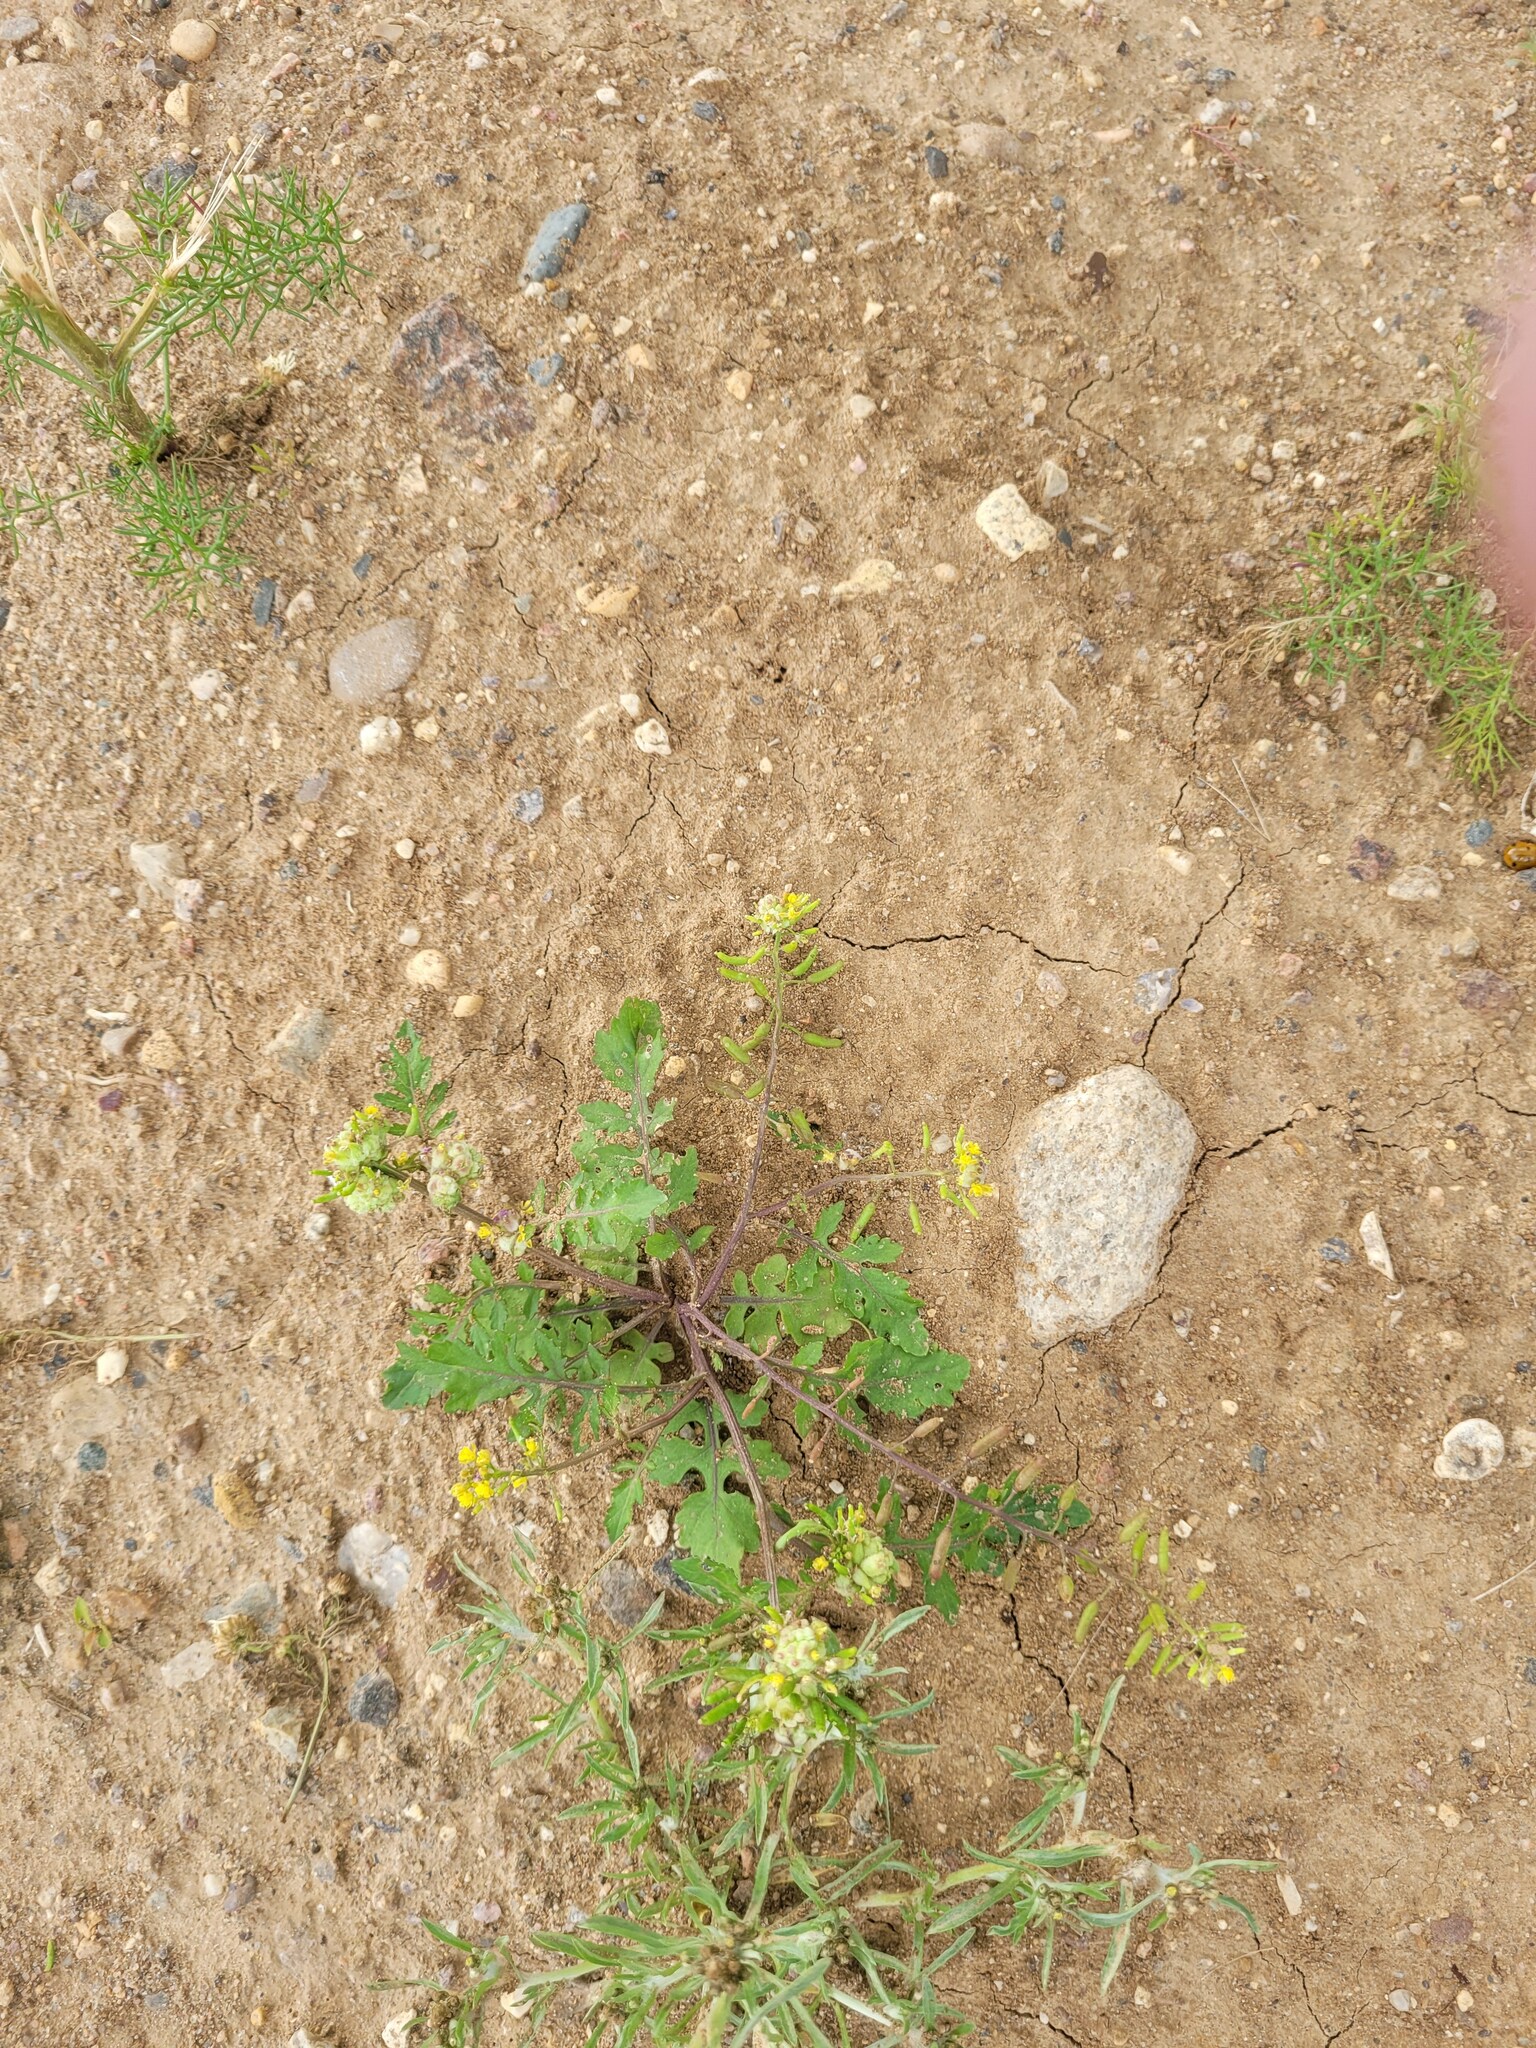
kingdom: Plantae
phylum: Tracheophyta
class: Magnoliopsida
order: Brassicales
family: Brassicaceae
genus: Rorippa
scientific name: Rorippa palustris
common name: Marsh yellow-cress
